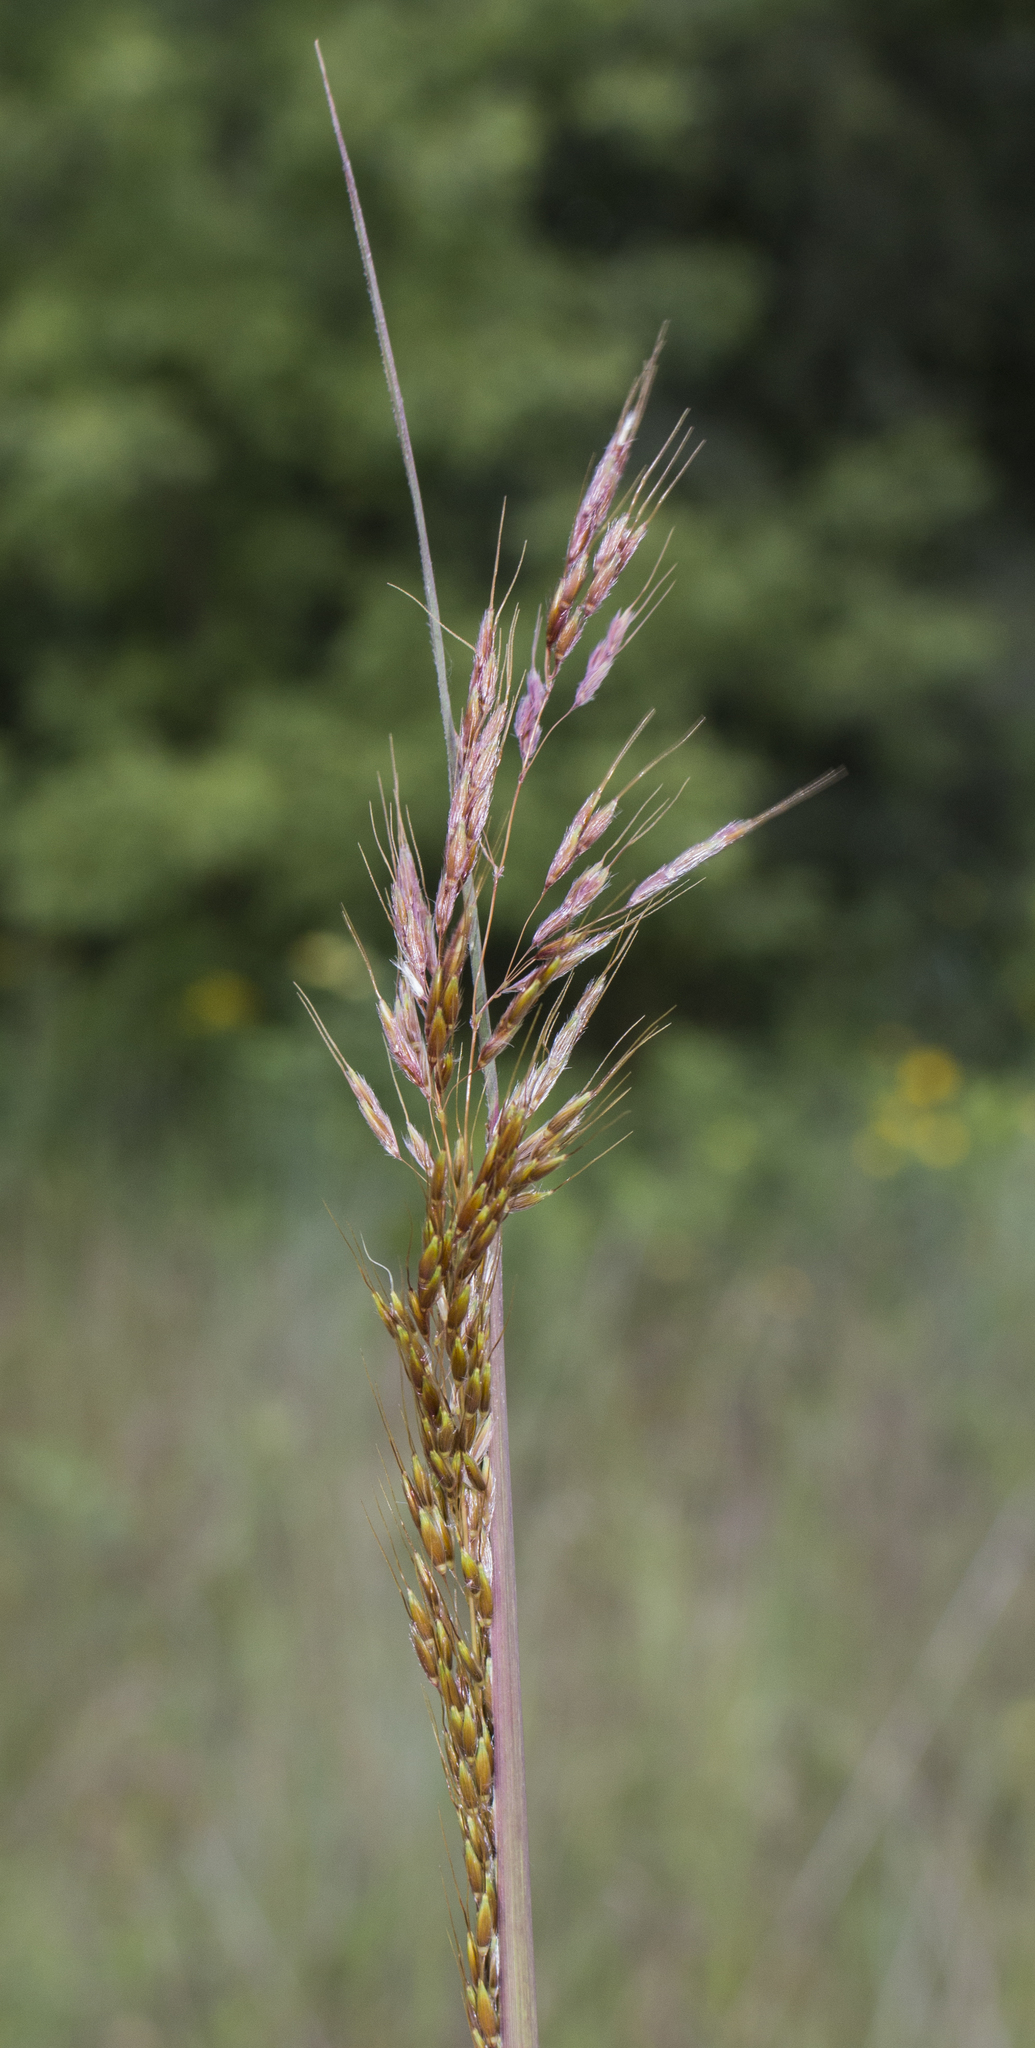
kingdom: Plantae
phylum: Tracheophyta
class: Liliopsida
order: Poales
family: Poaceae
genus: Sorghastrum
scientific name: Sorghastrum nutans
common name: Indian grass
